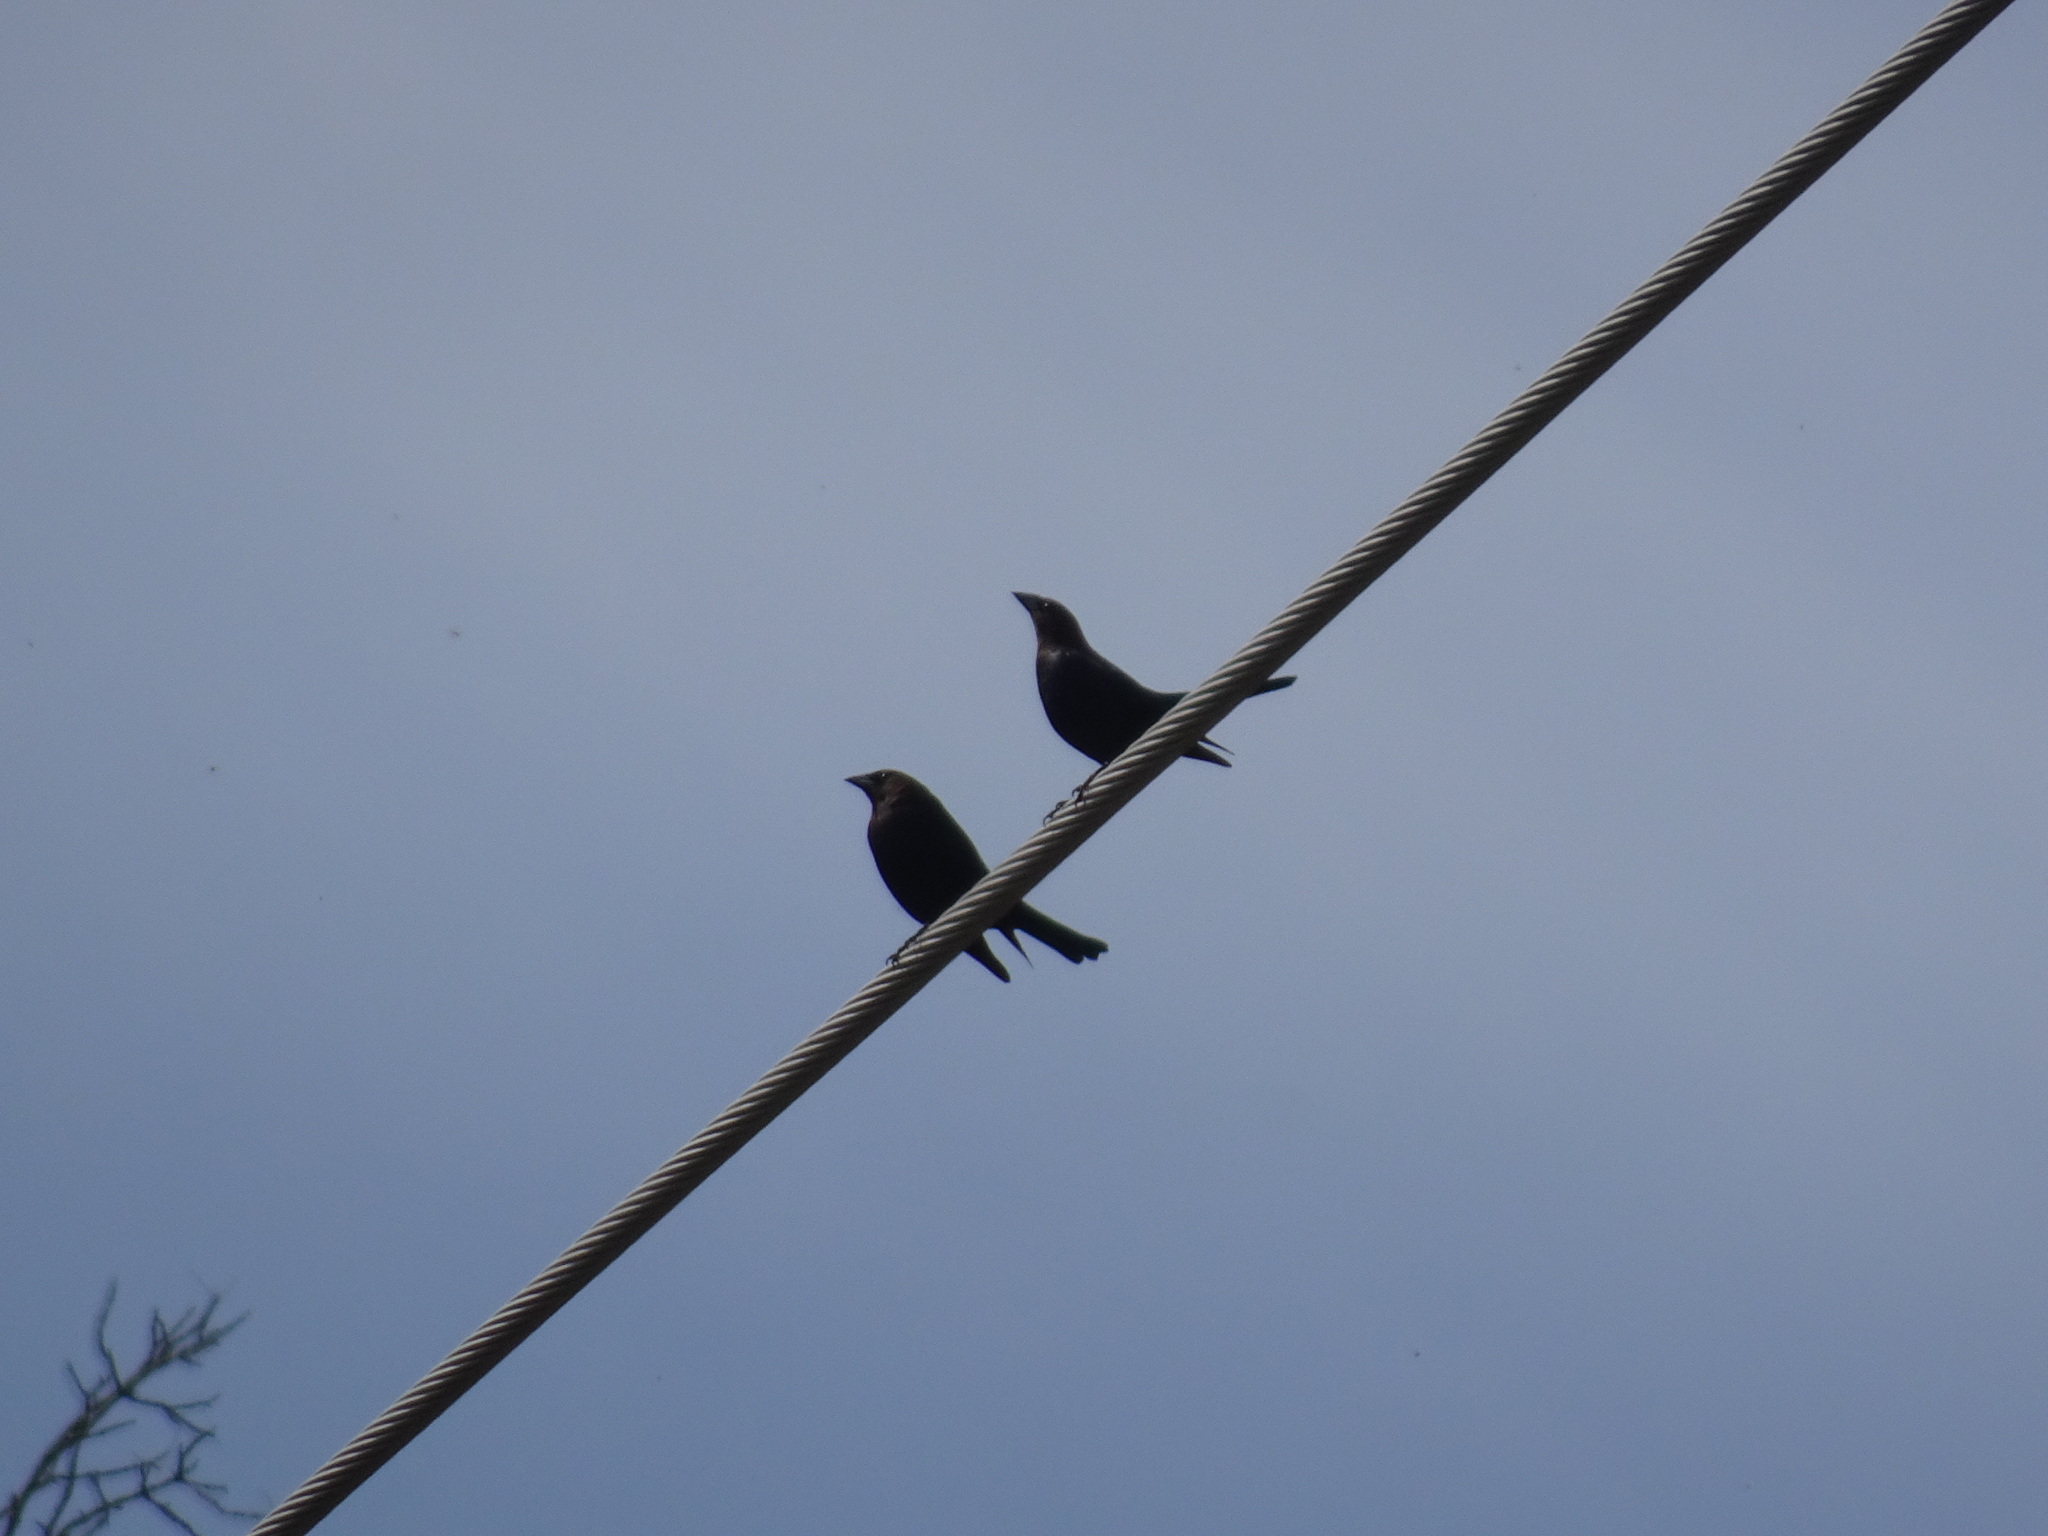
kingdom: Animalia
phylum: Chordata
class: Aves
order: Passeriformes
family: Icteridae
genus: Molothrus
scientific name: Molothrus ater
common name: Brown-headed cowbird
